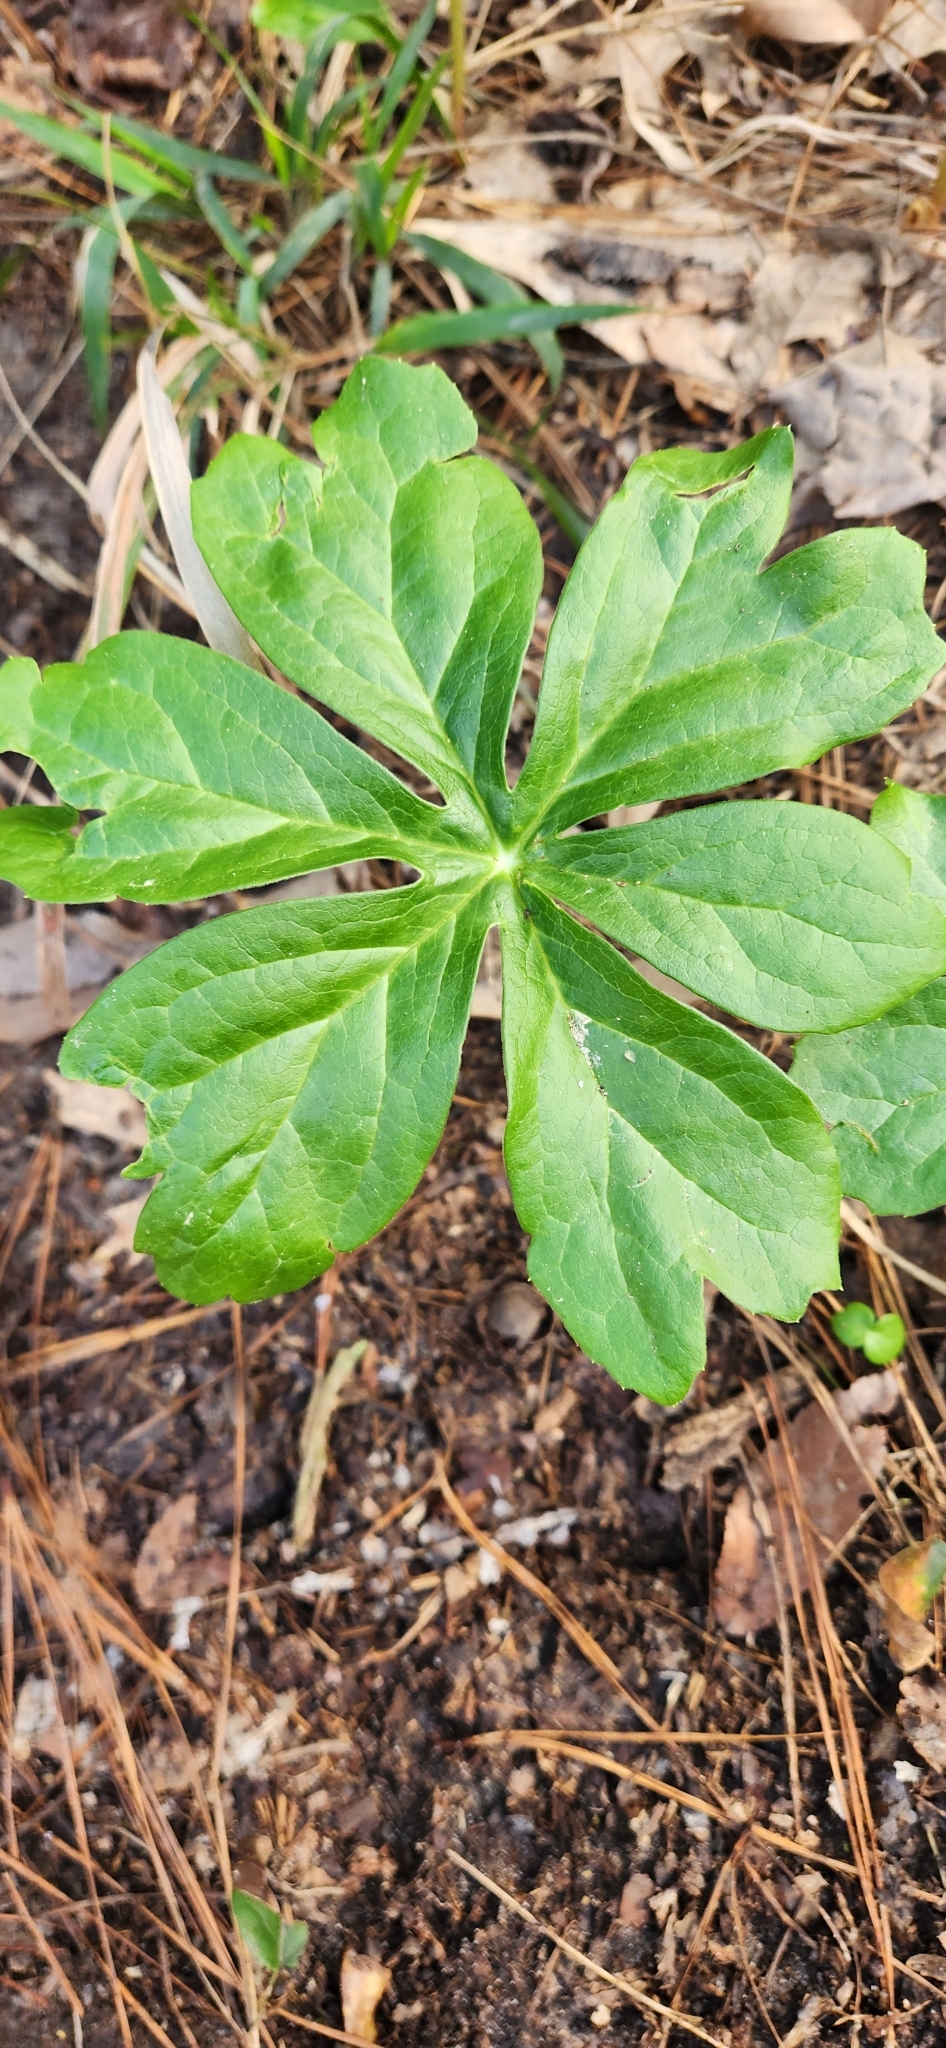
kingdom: Plantae
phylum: Tracheophyta
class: Magnoliopsida
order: Ranunculales
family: Berberidaceae
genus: Podophyllum
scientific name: Podophyllum peltatum
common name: Wild mandrake
